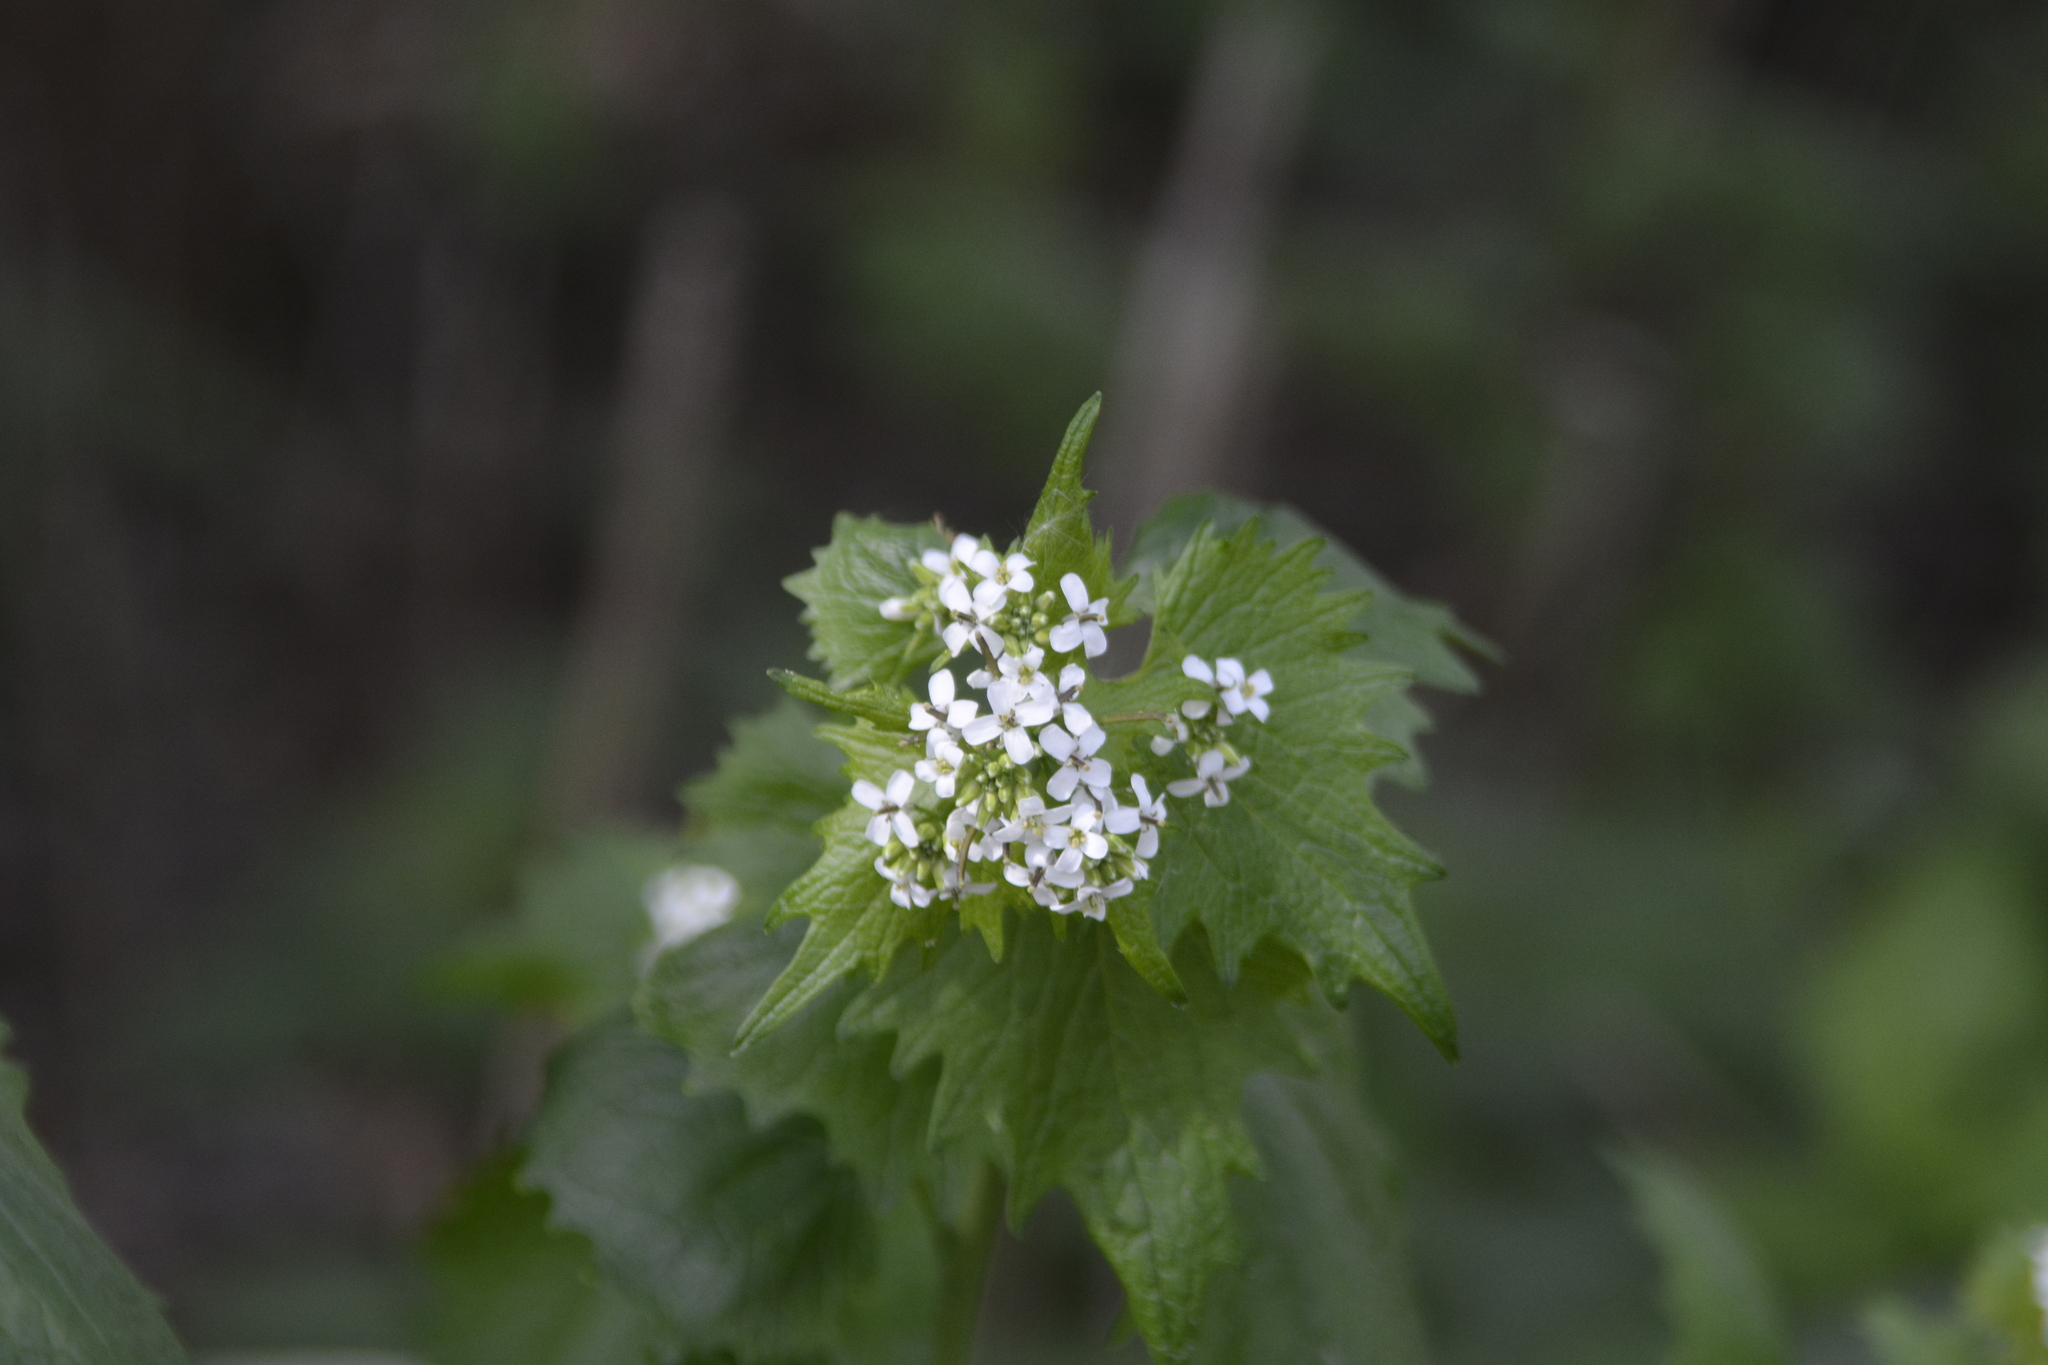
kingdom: Plantae
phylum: Tracheophyta
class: Magnoliopsida
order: Brassicales
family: Brassicaceae
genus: Alliaria
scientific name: Alliaria petiolata
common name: Garlic mustard
